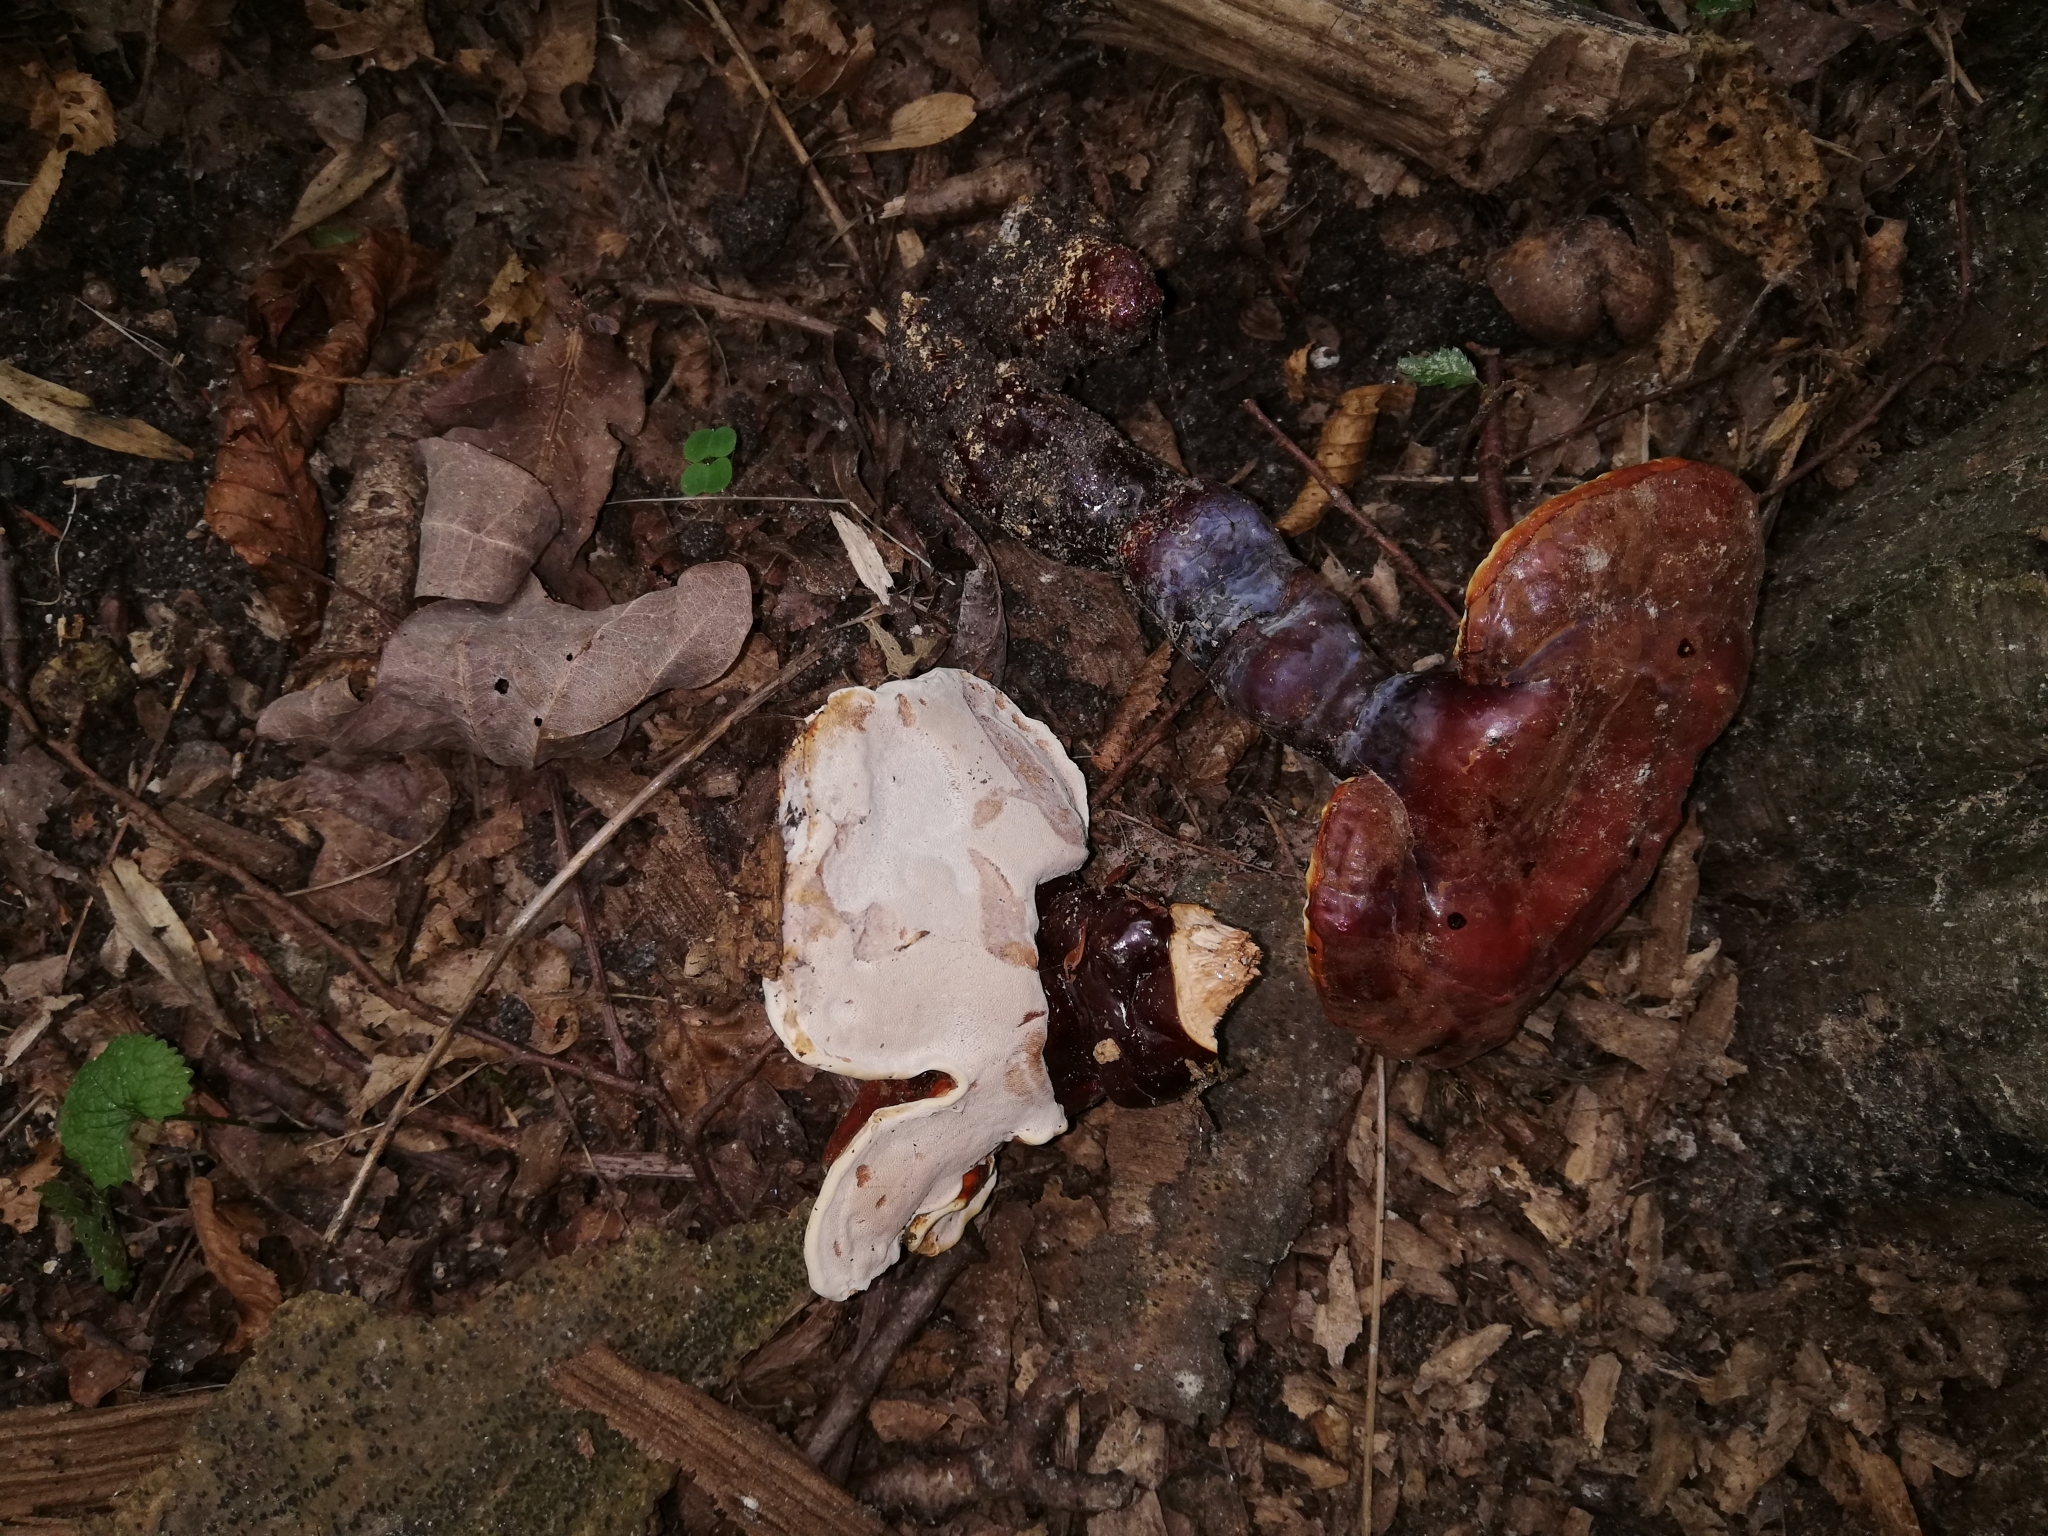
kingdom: Fungi
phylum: Basidiomycota
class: Agaricomycetes
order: Polyporales
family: Polyporaceae
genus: Ganoderma
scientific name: Ganoderma lucidum
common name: Lacquered bracket
